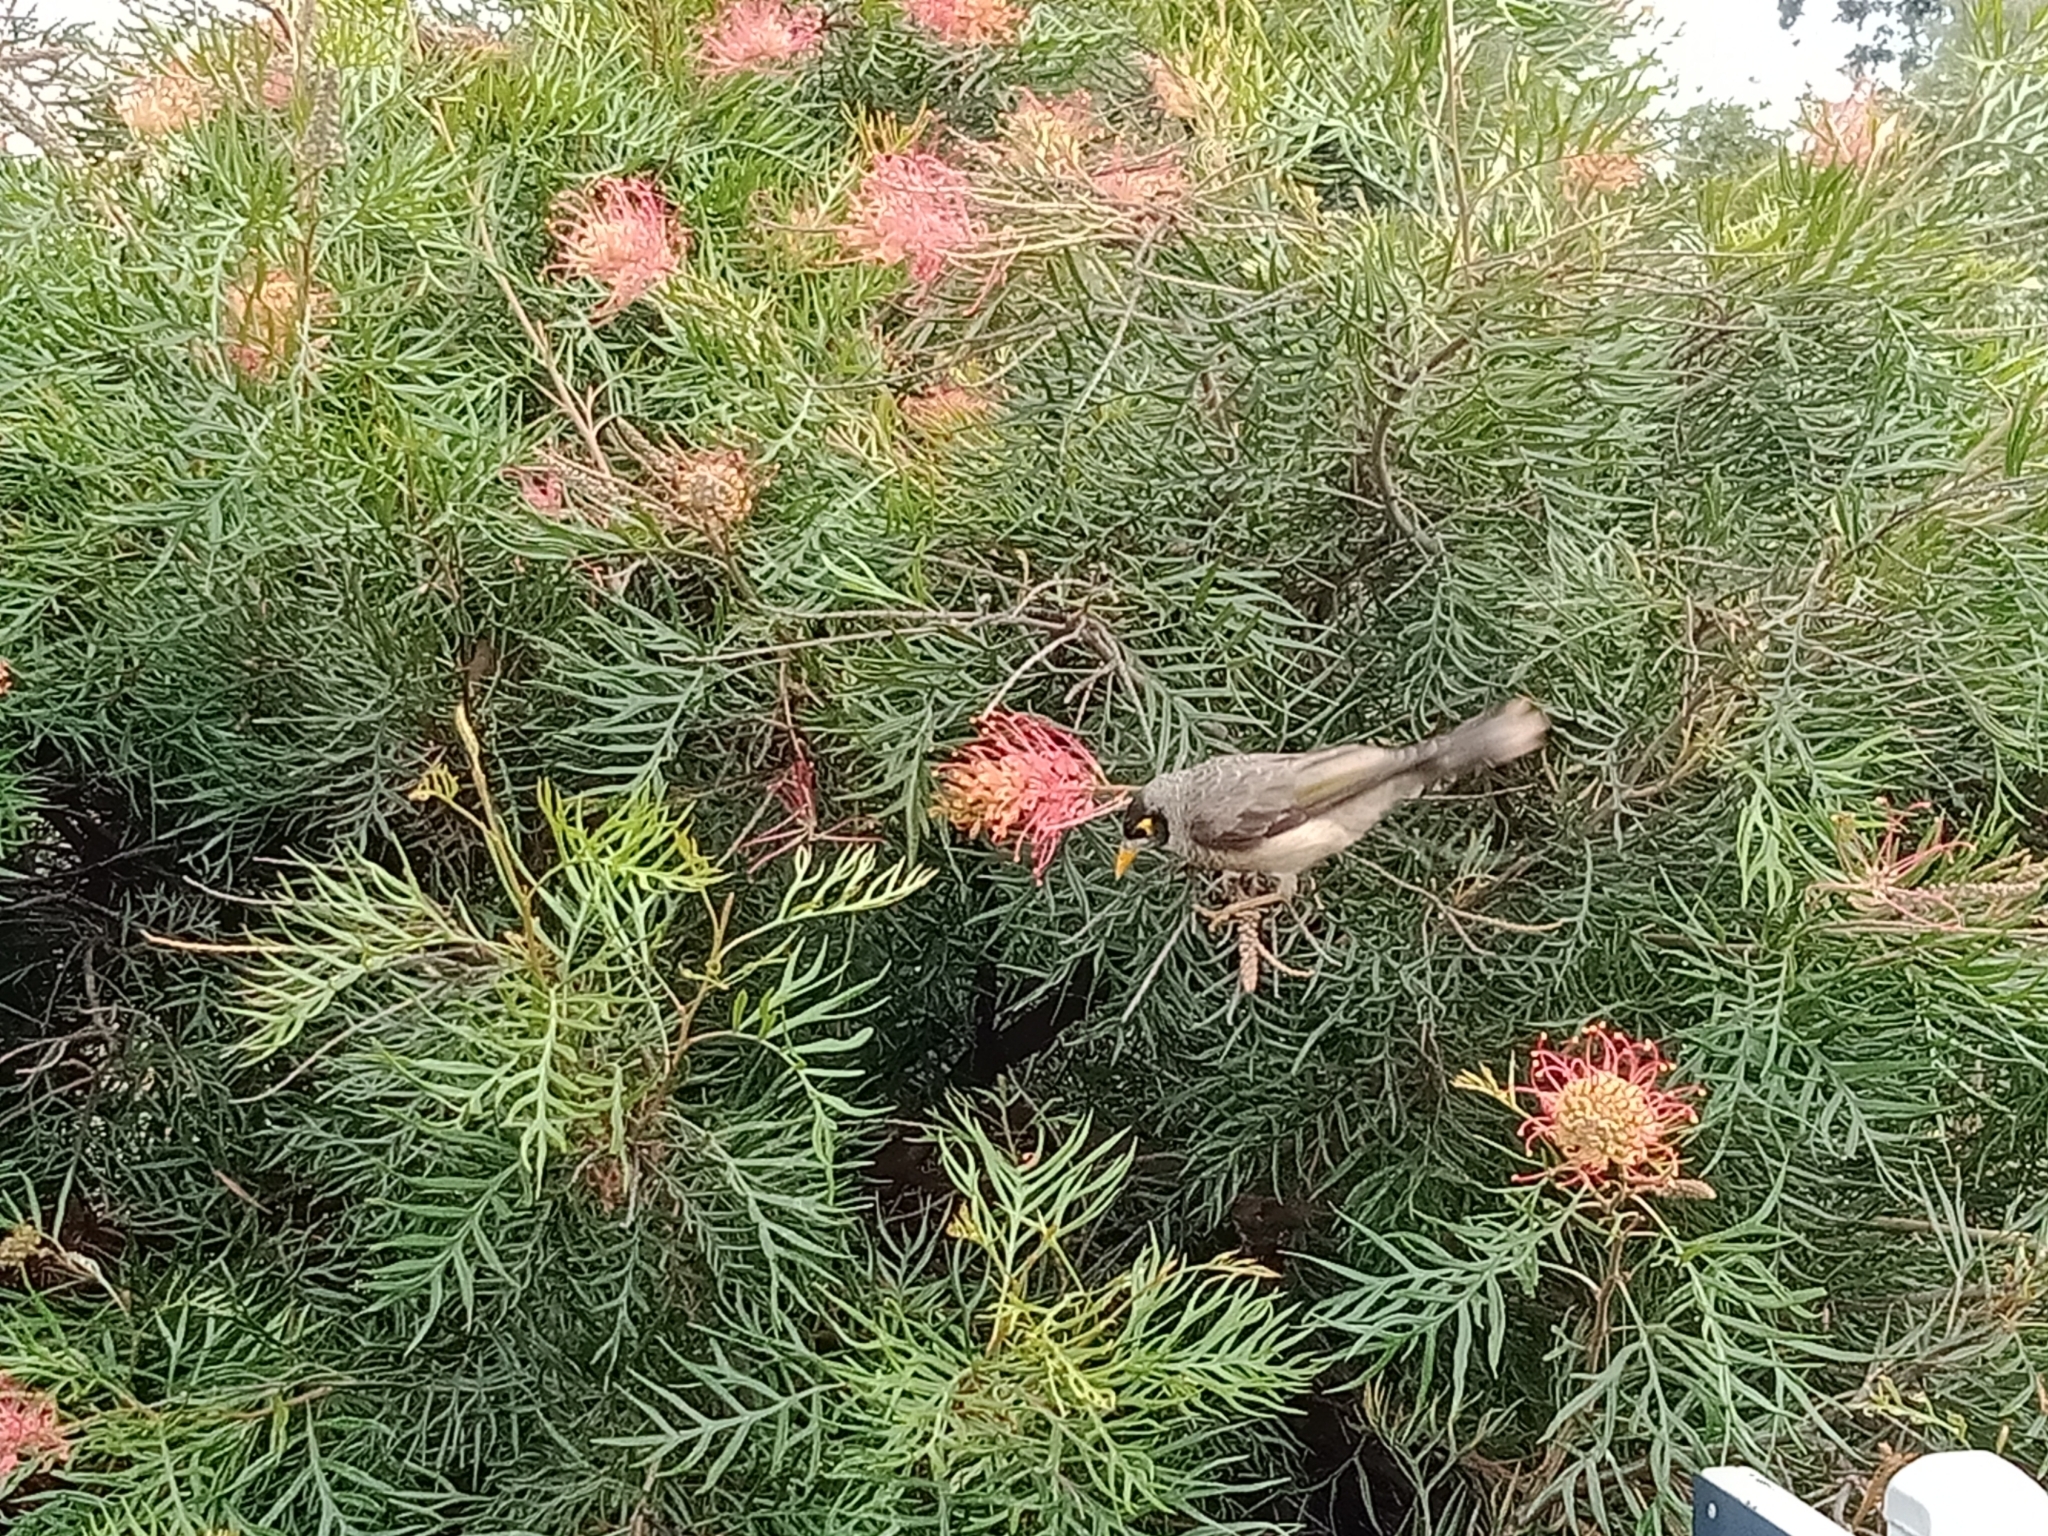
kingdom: Animalia
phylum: Chordata
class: Aves
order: Passeriformes
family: Meliphagidae
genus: Manorina
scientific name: Manorina melanocephala
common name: Noisy miner
